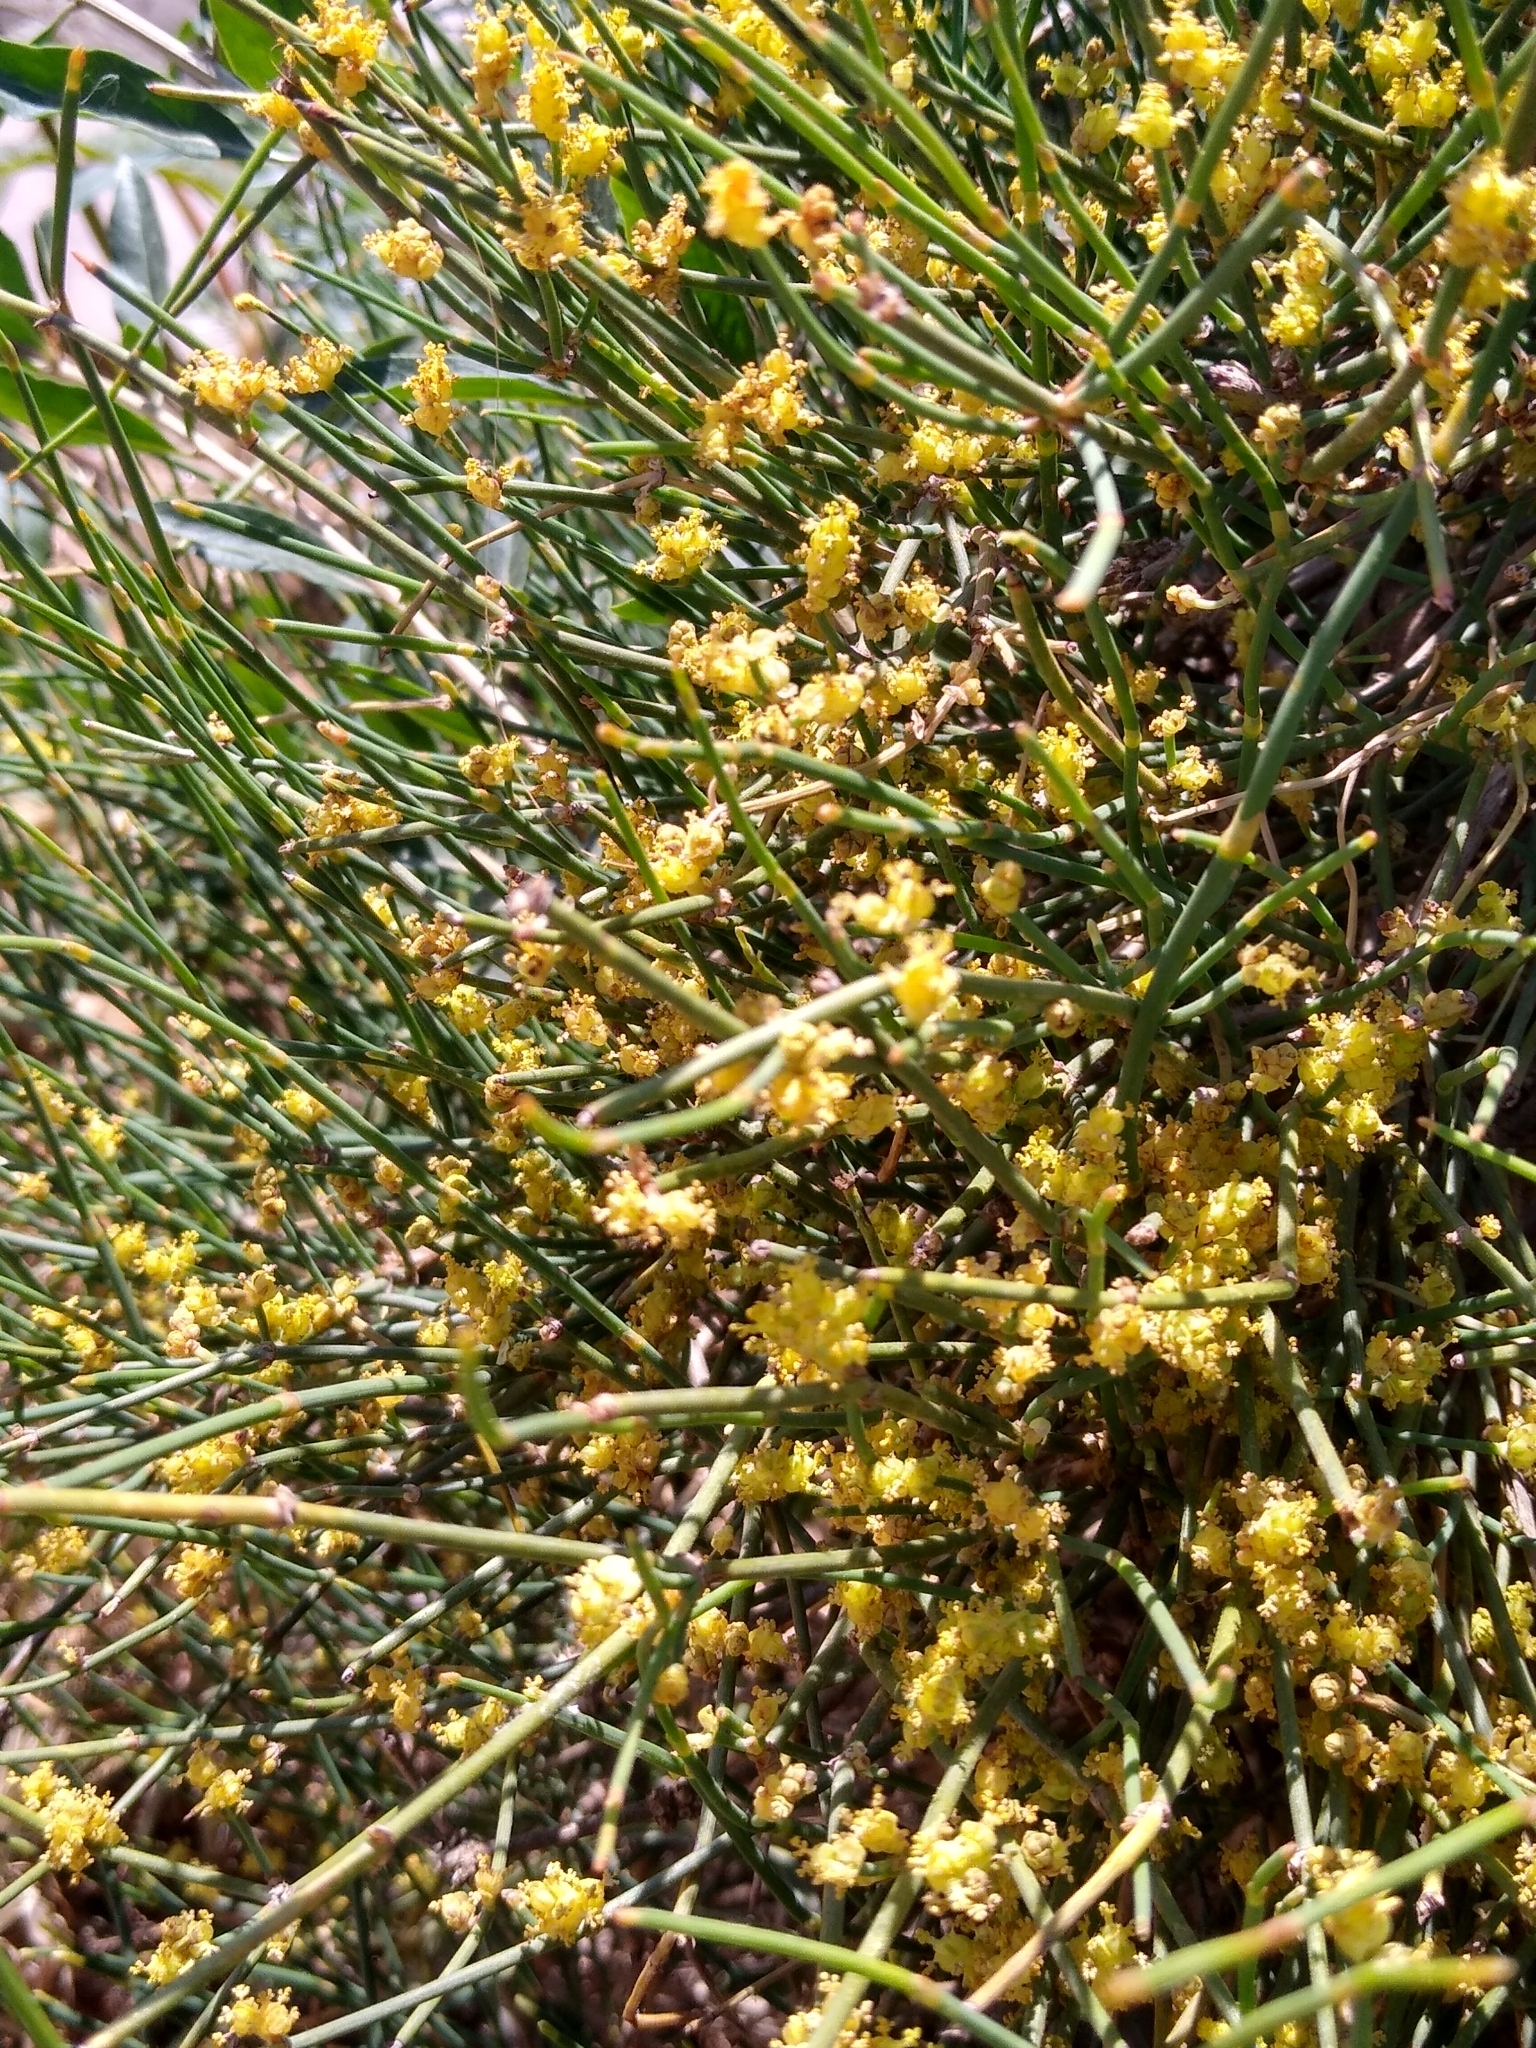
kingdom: Plantae
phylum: Tracheophyta
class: Gnetopsida
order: Ephedrales
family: Ephedraceae
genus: Ephedra
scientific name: Ephedra distachya
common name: Sea grape
